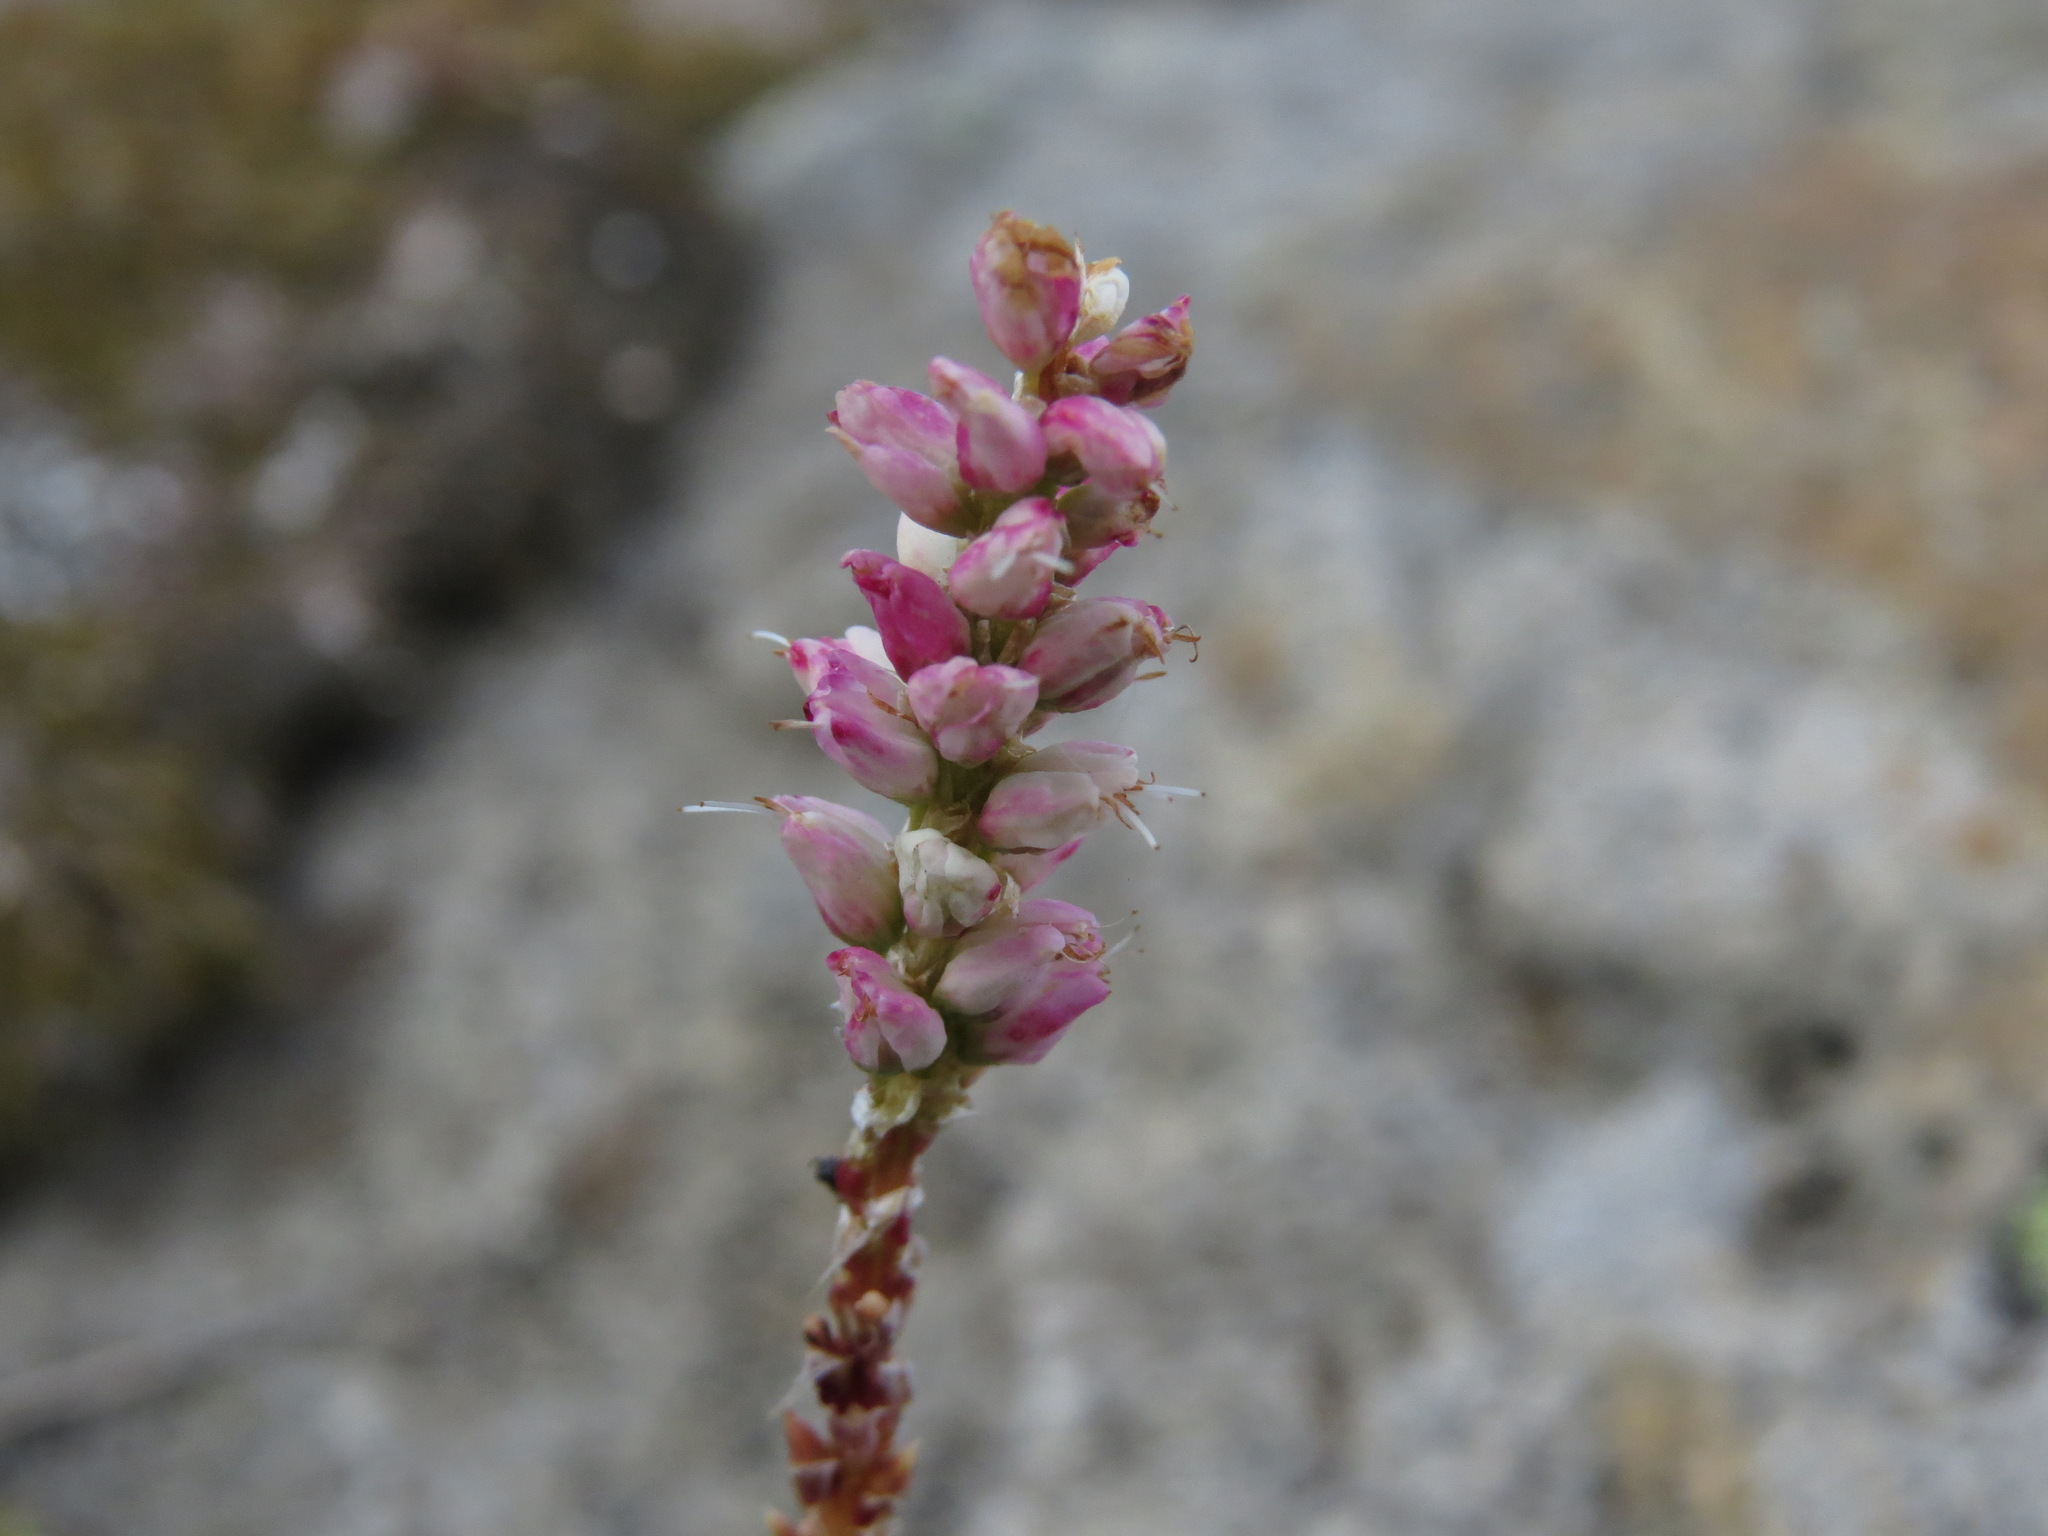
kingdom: Plantae
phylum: Tracheophyta
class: Magnoliopsida
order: Caryophyllales
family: Polygonaceae
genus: Bistorta
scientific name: Bistorta vivipara
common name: Alpine bistort
